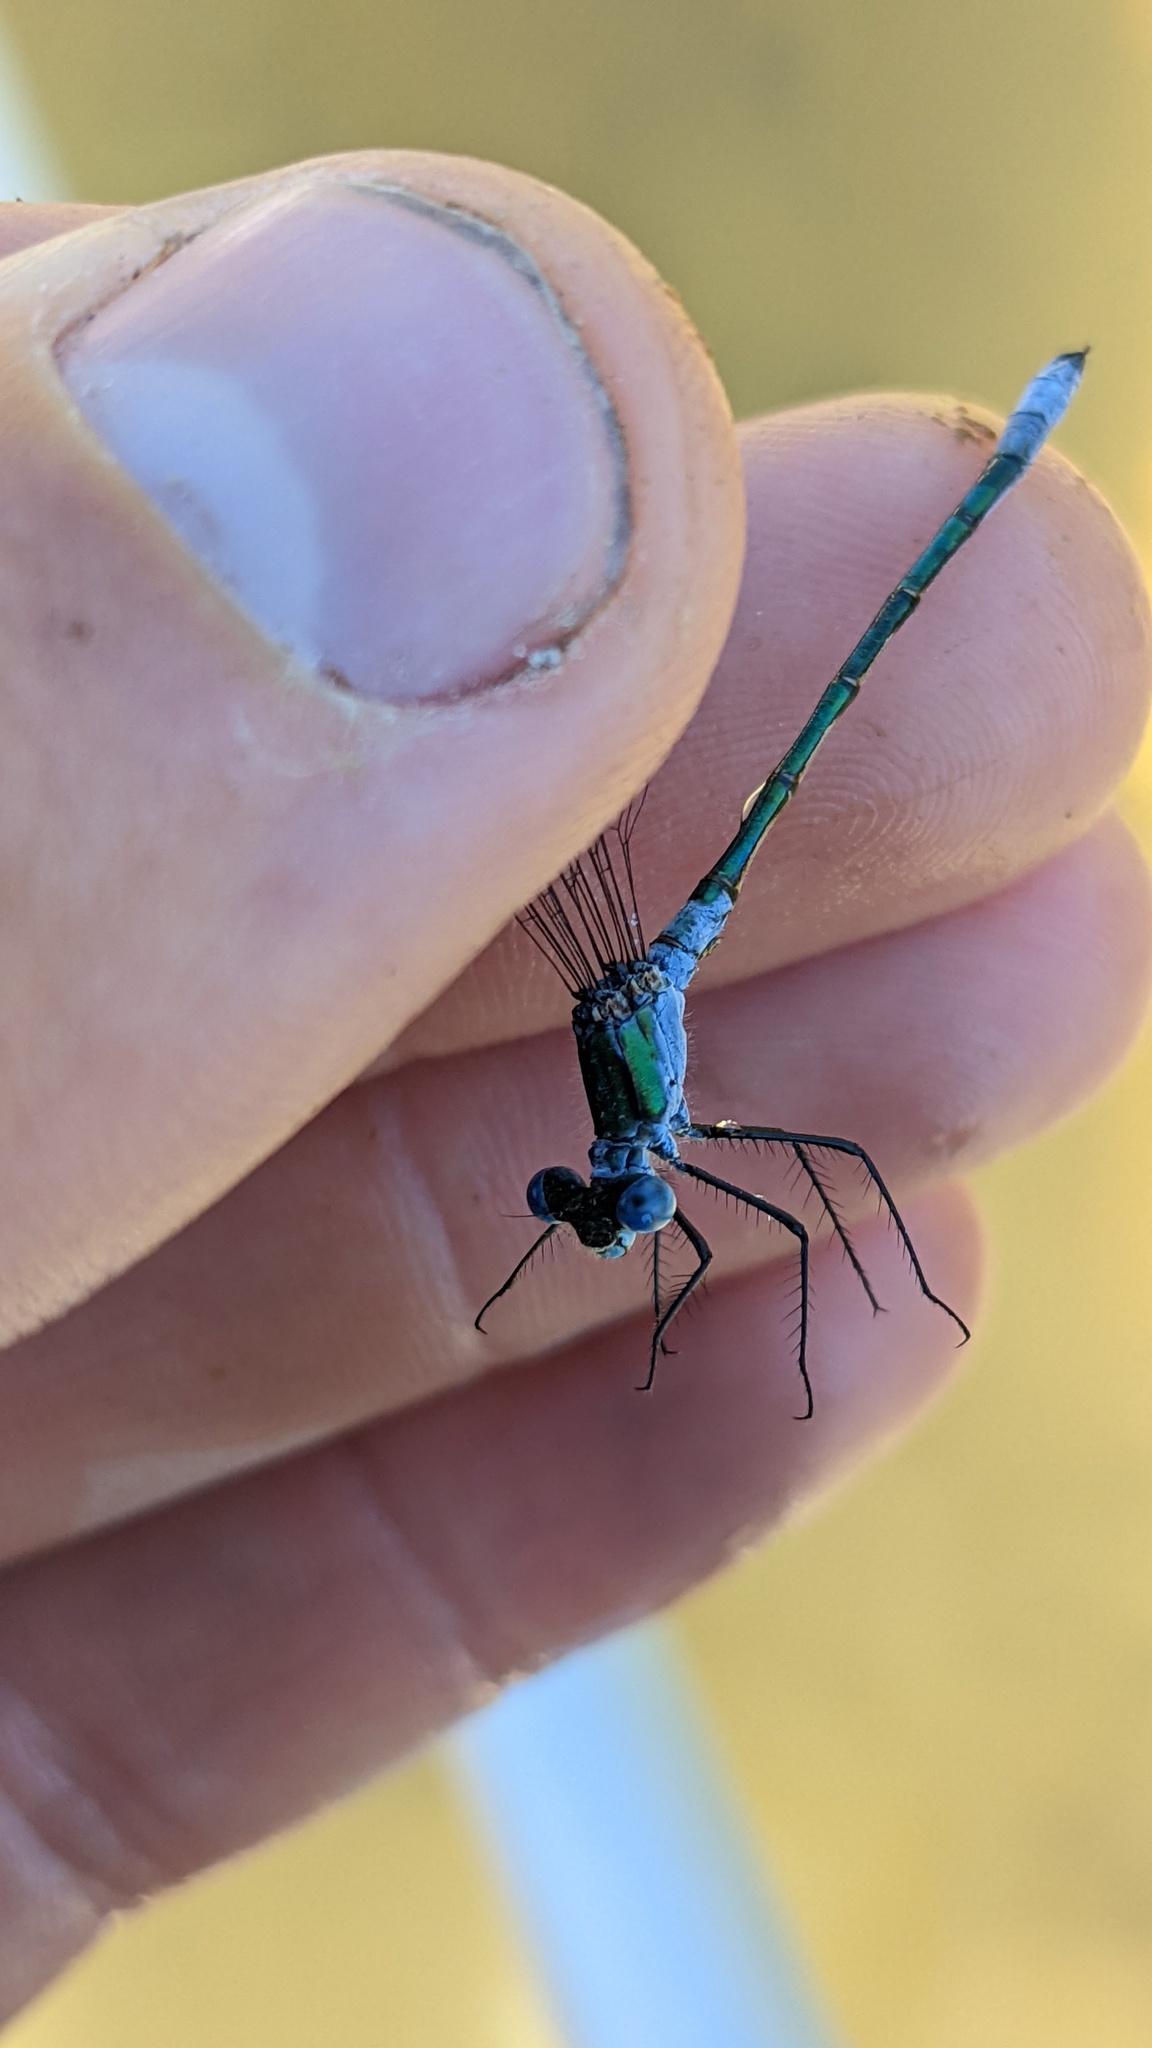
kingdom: Animalia
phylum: Arthropoda
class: Insecta
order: Odonata
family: Lestidae
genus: Lestes
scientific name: Lestes dryas
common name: Scarce emerald damselfly
